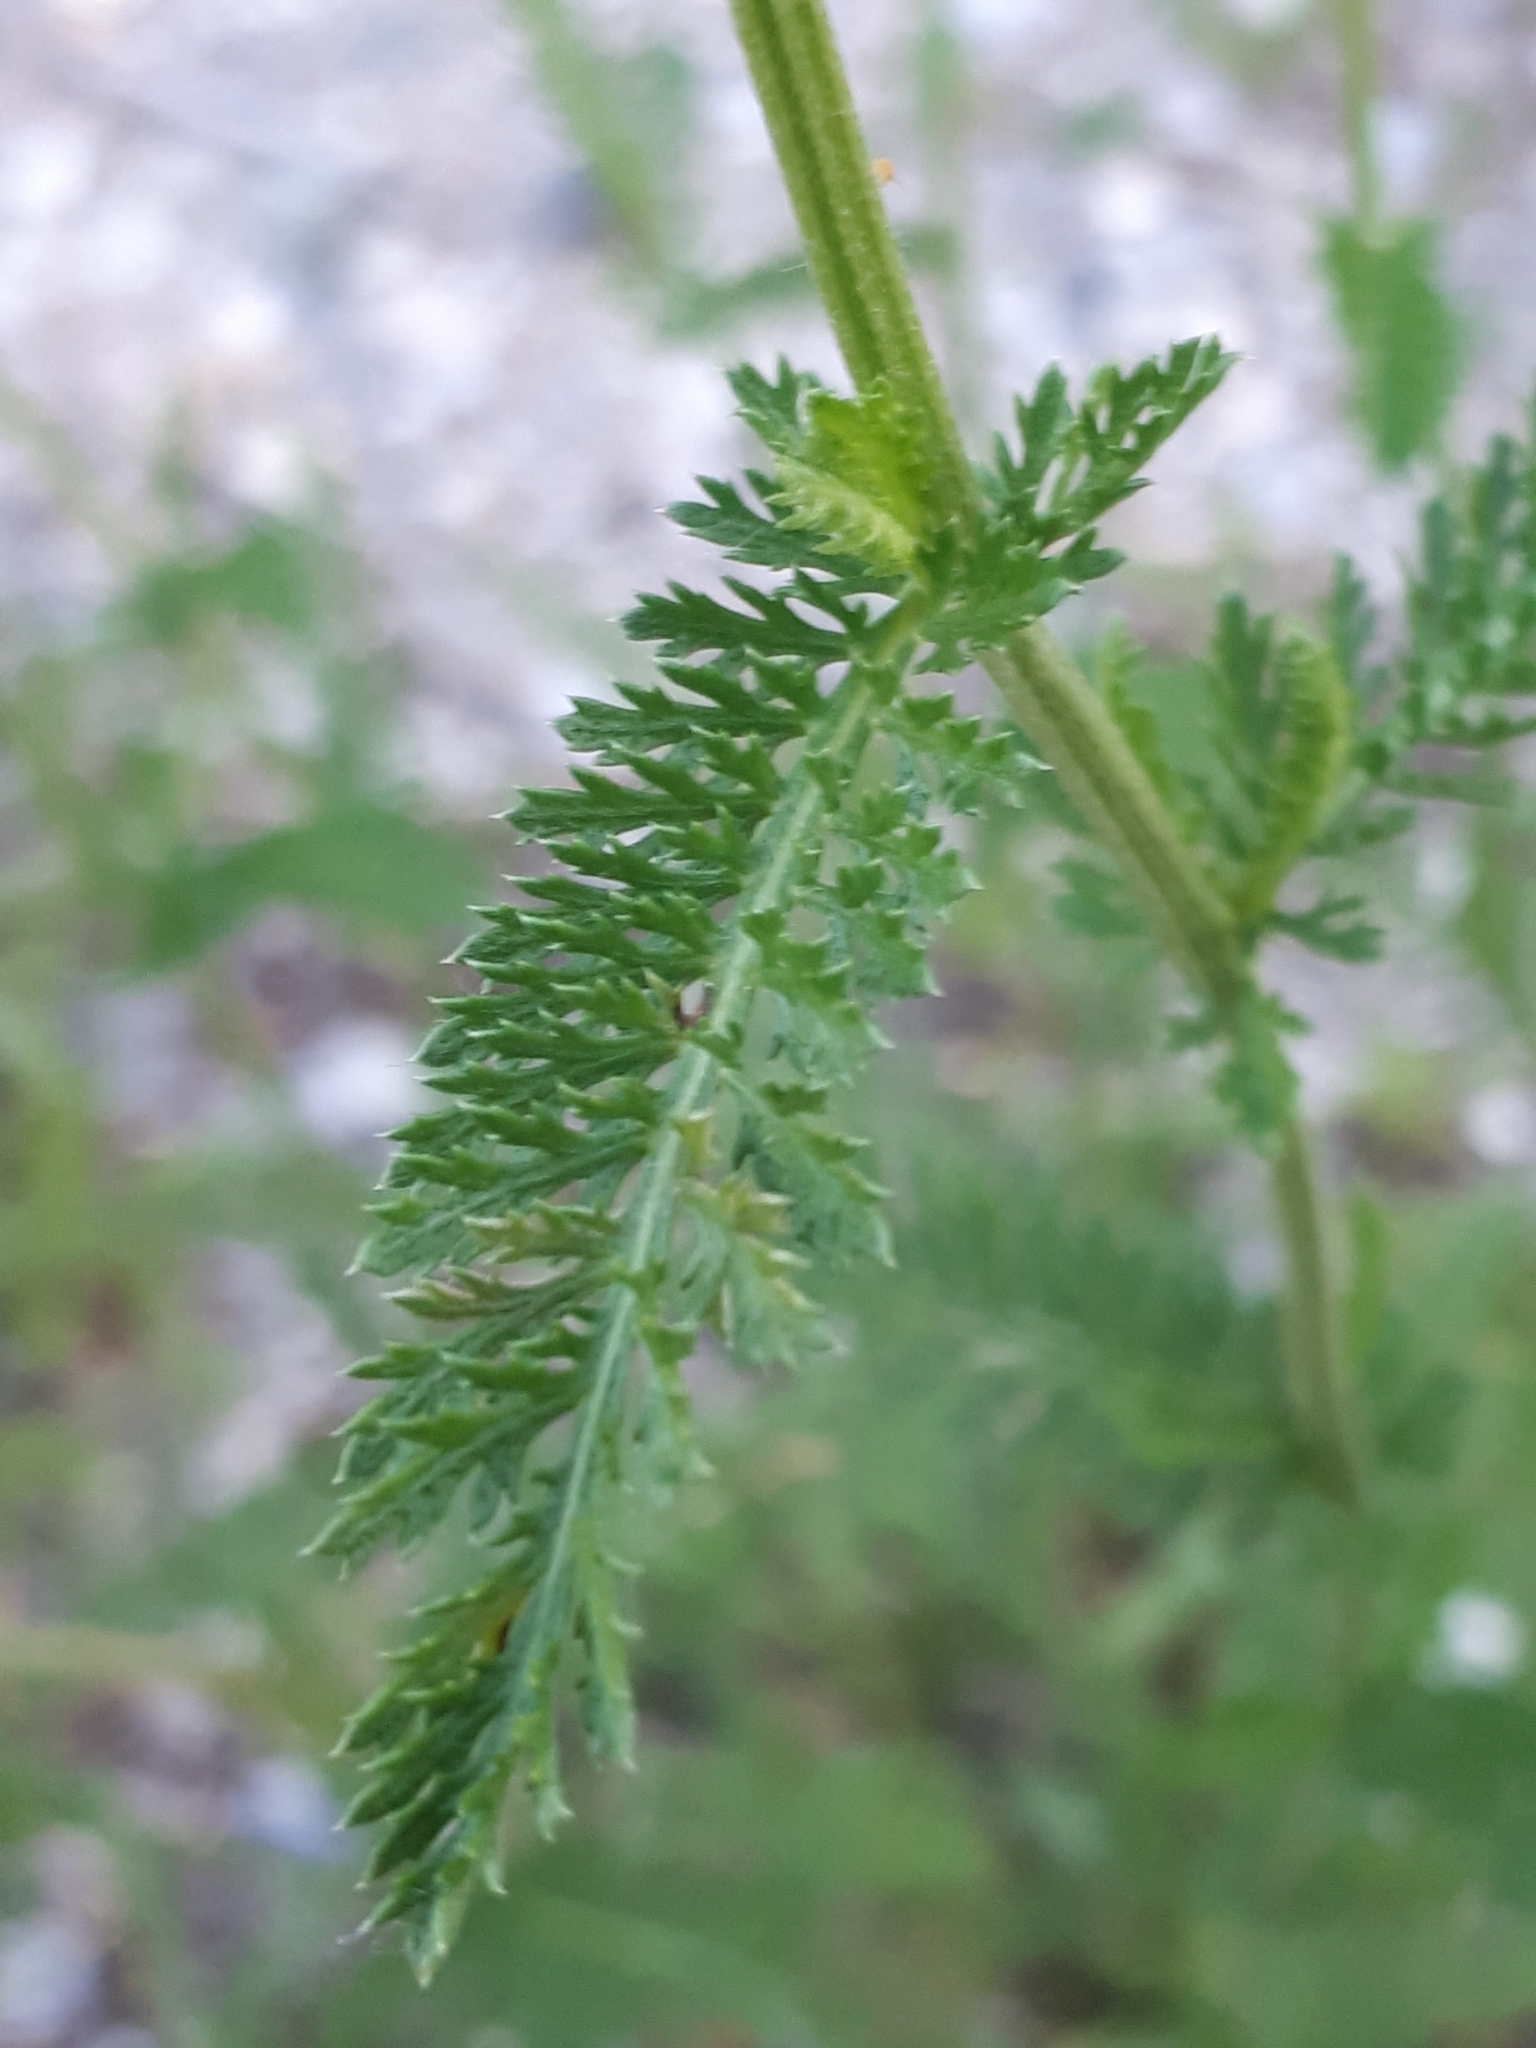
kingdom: Plantae
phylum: Tracheophyta
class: Magnoliopsida
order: Asterales
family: Asteraceae
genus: Achillea
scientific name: Achillea millefolium
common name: Yarrow
